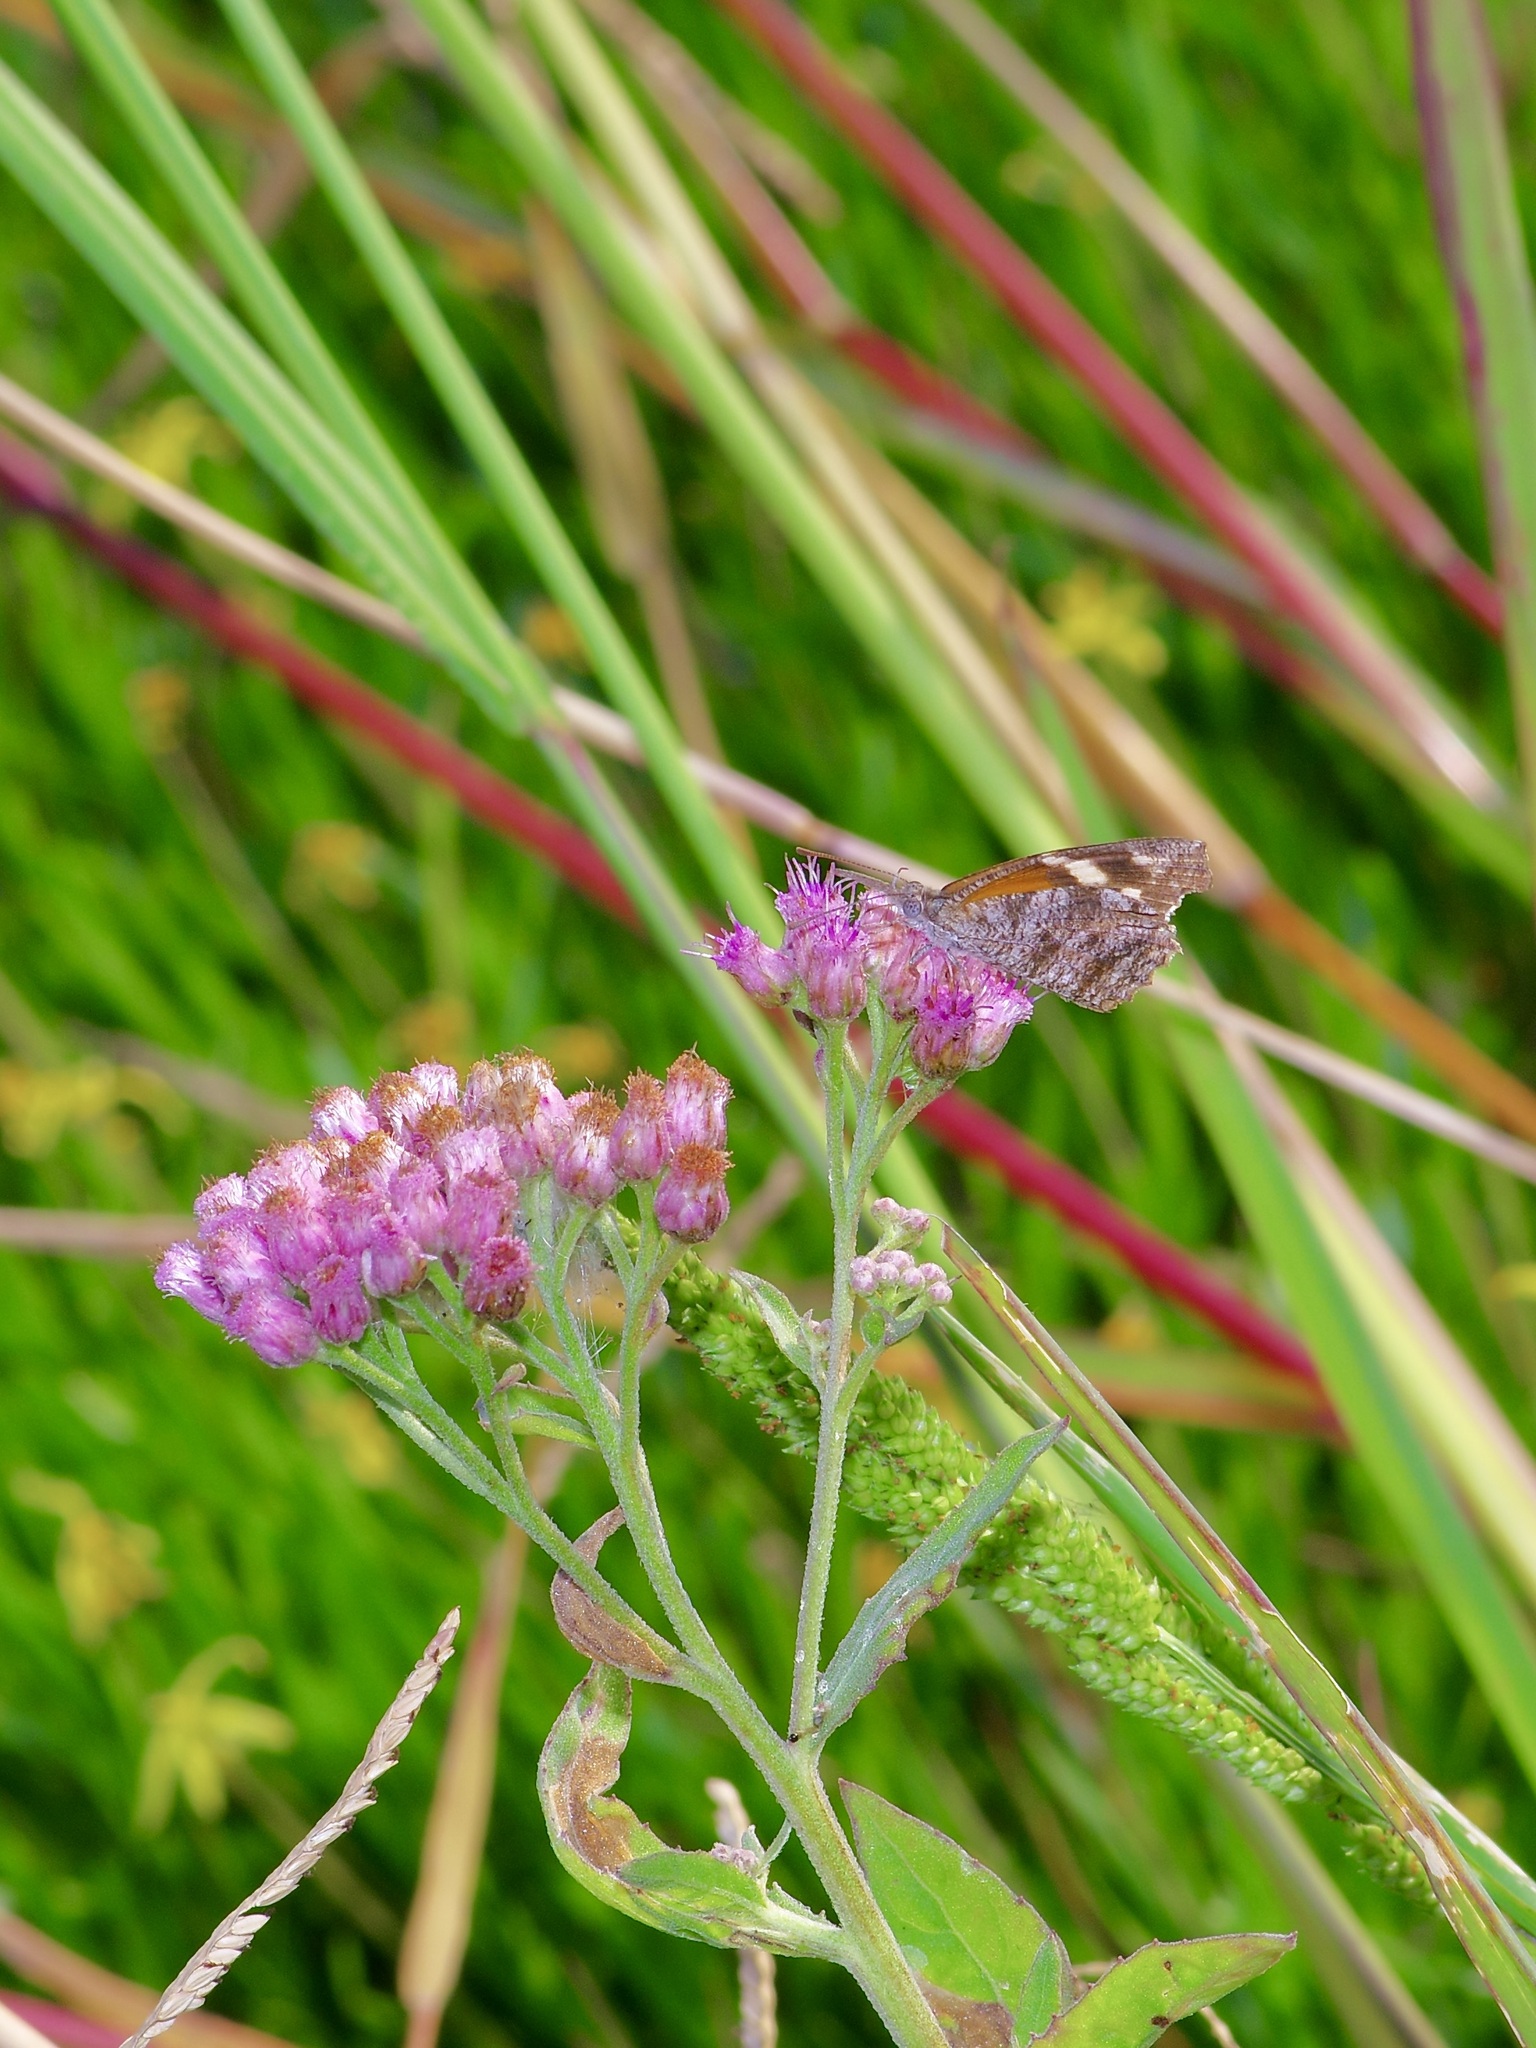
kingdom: Animalia
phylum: Arthropoda
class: Insecta
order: Lepidoptera
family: Nymphalidae
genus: Libytheana
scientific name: Libytheana carinenta
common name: American snout
